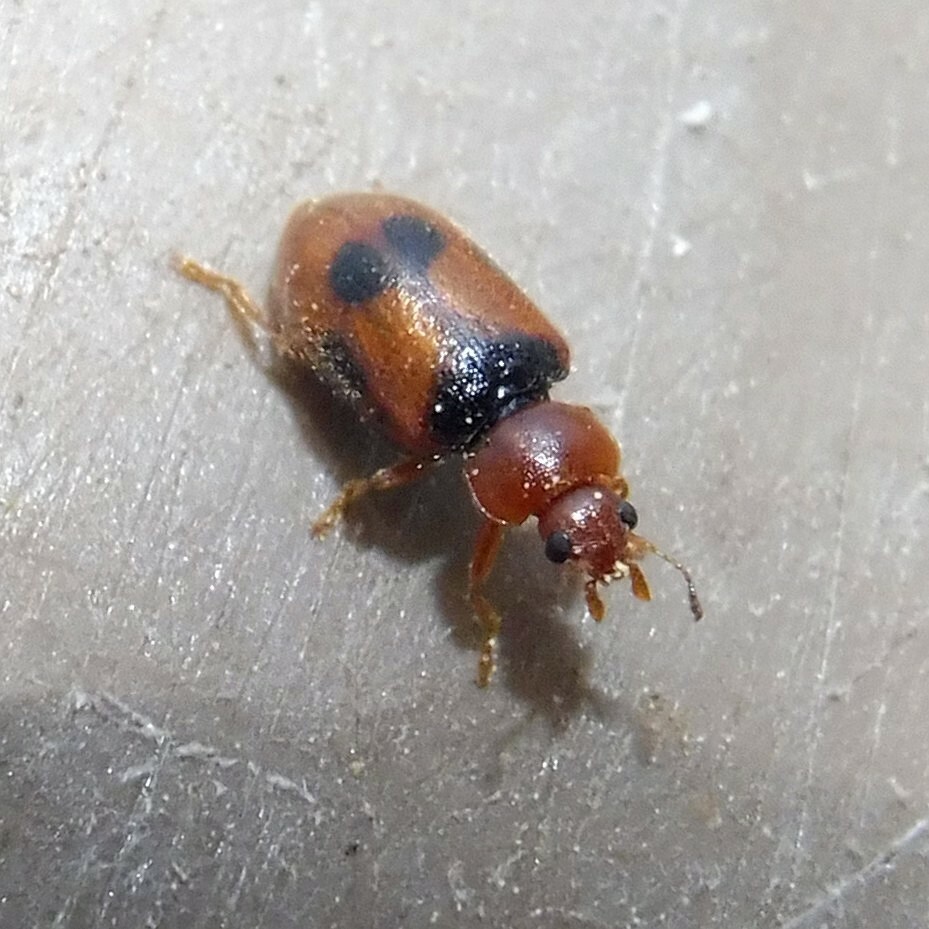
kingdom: Animalia
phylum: Arthropoda
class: Insecta
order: Coleoptera
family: Coccinellidae
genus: Coccidula
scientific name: Coccidula scutellata
